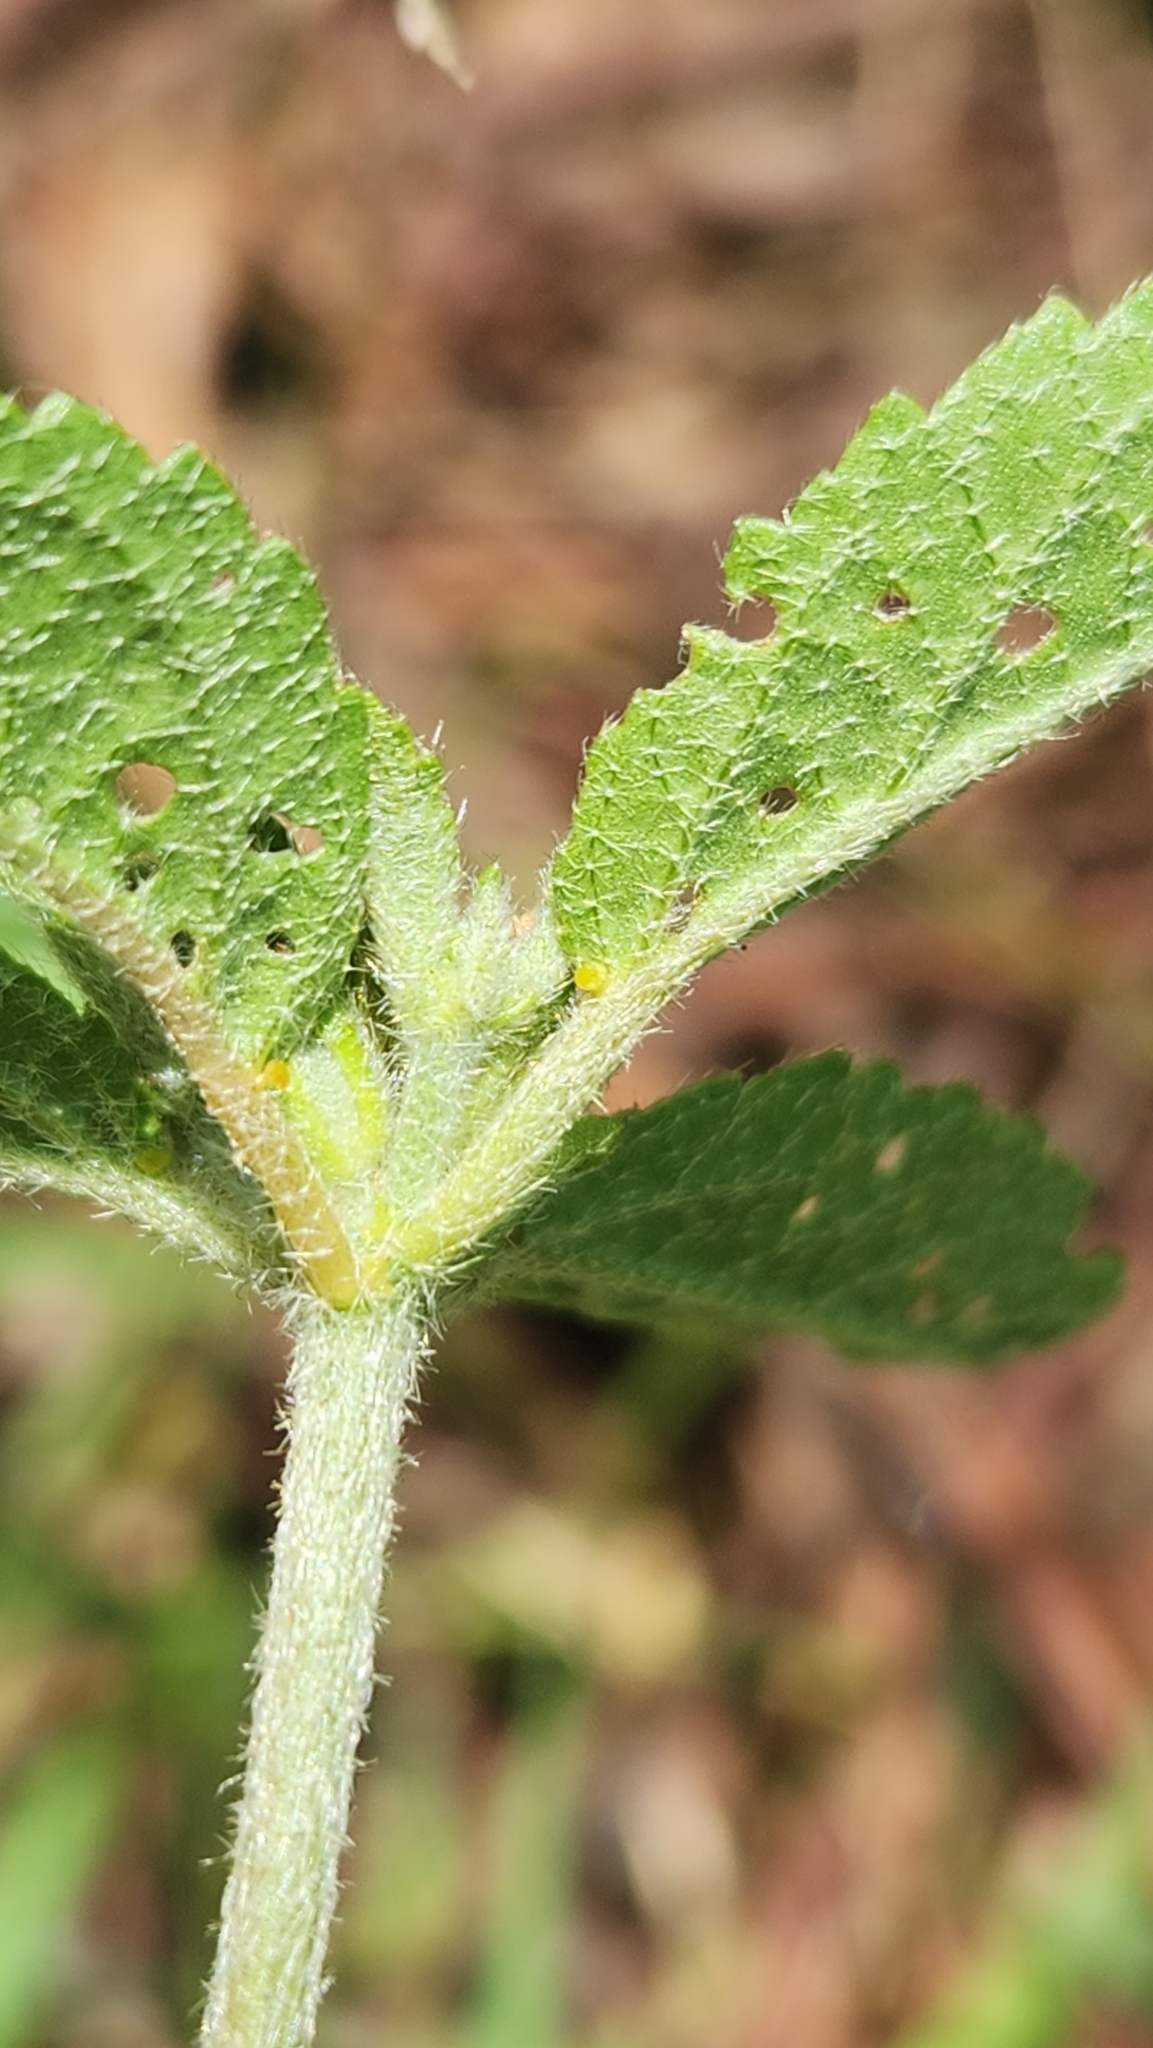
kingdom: Plantae
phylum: Tracheophyta
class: Magnoliopsida
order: Malpighiales
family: Euphorbiaceae
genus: Croton
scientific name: Croton glandulosus
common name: Tropic croton
